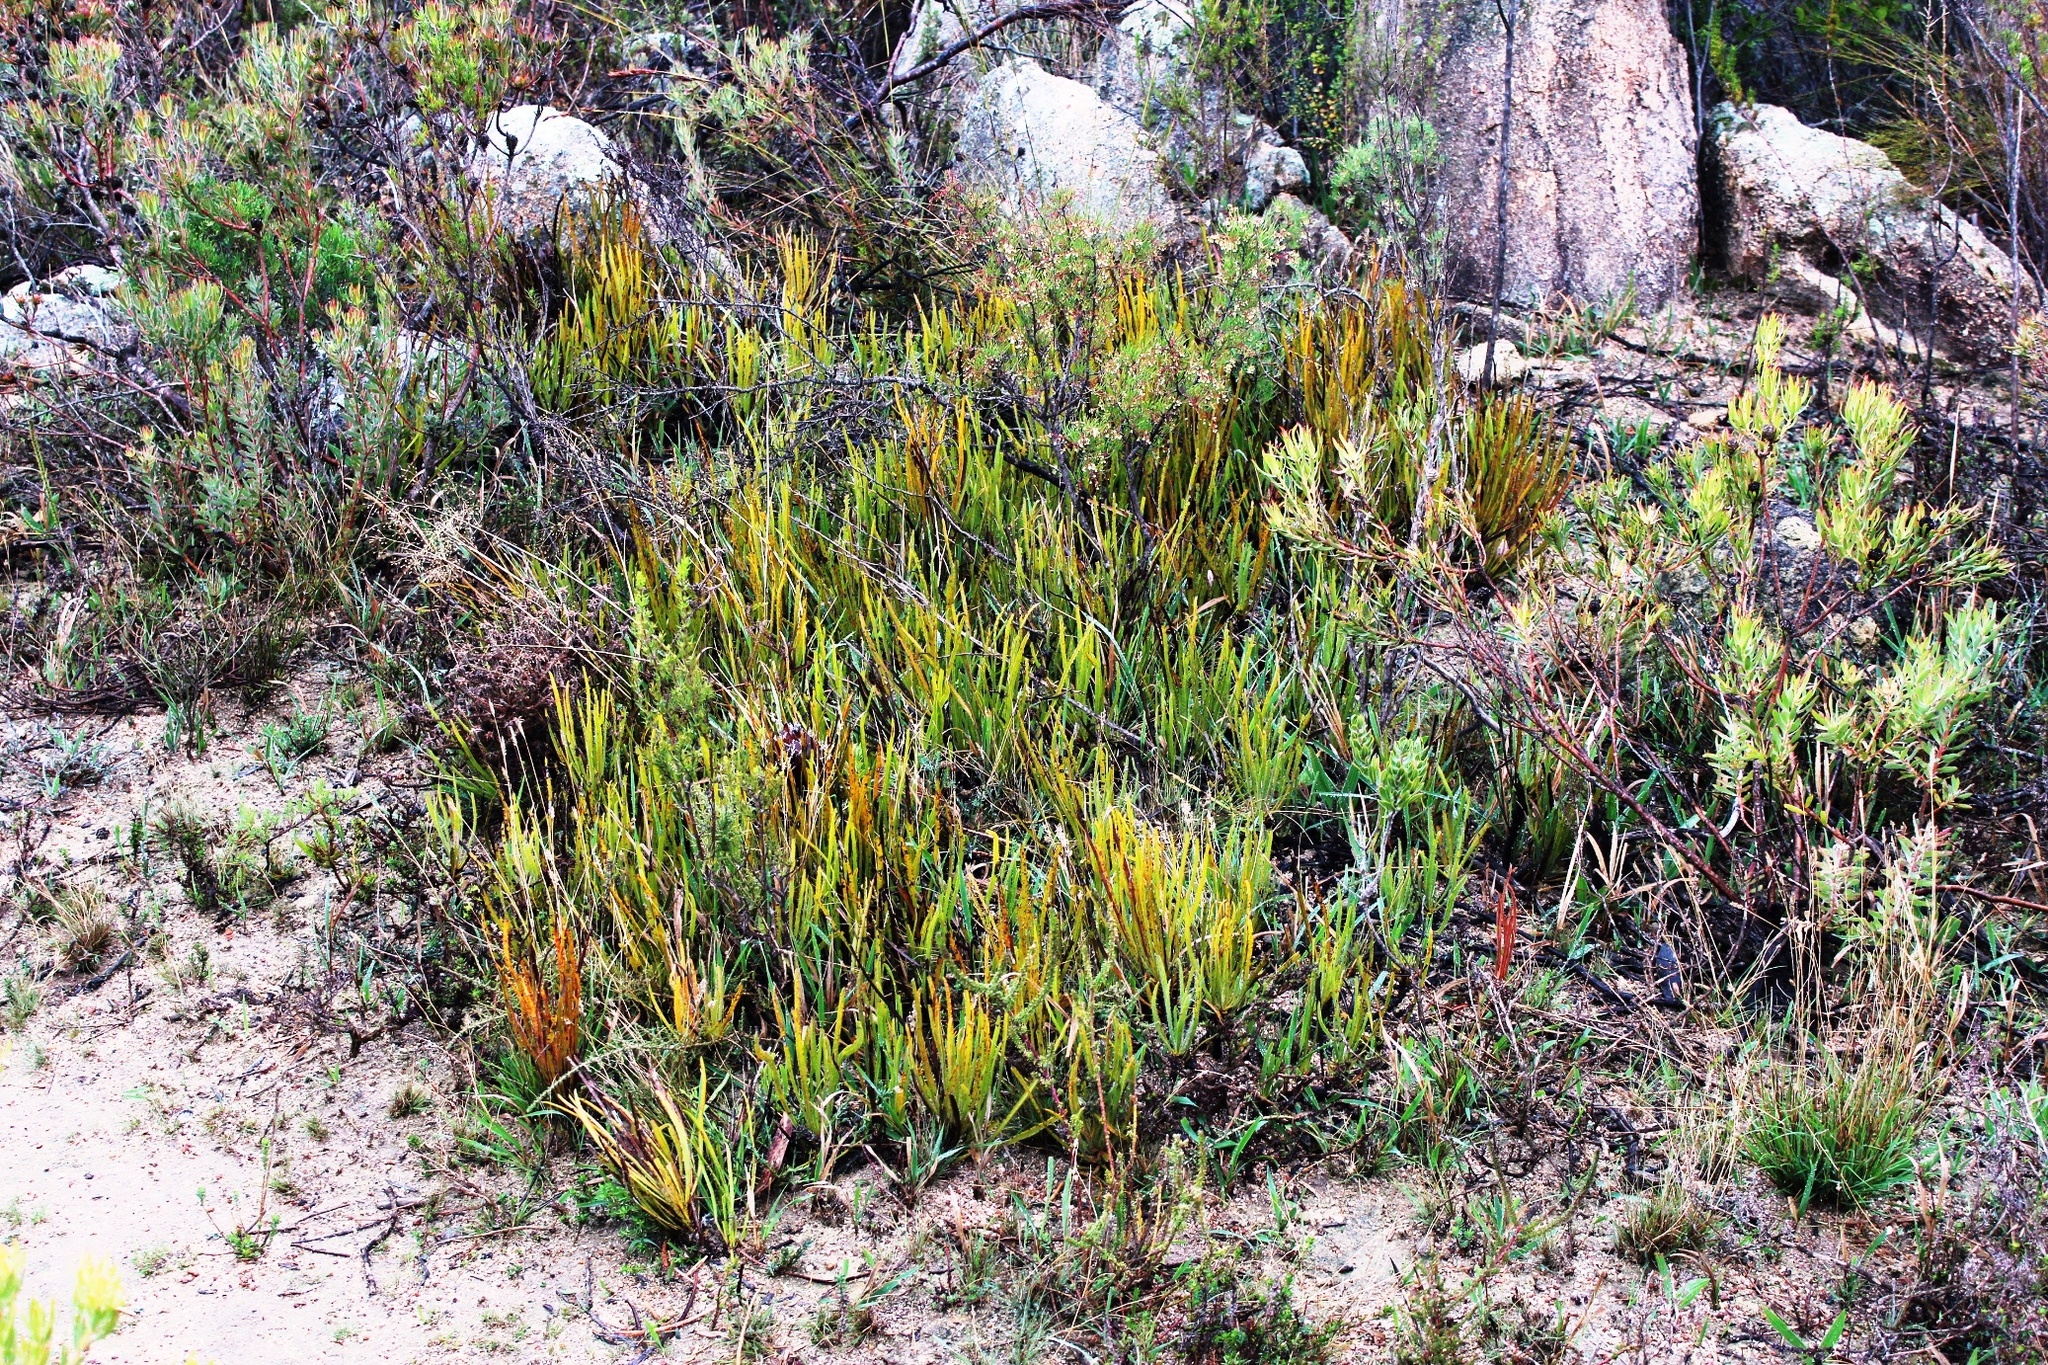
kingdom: Plantae
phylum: Tracheophyta
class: Magnoliopsida
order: Proteales
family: Proteaceae
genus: Protea
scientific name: Protea scorzonerifolia
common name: Channel-leaf sugarbush
